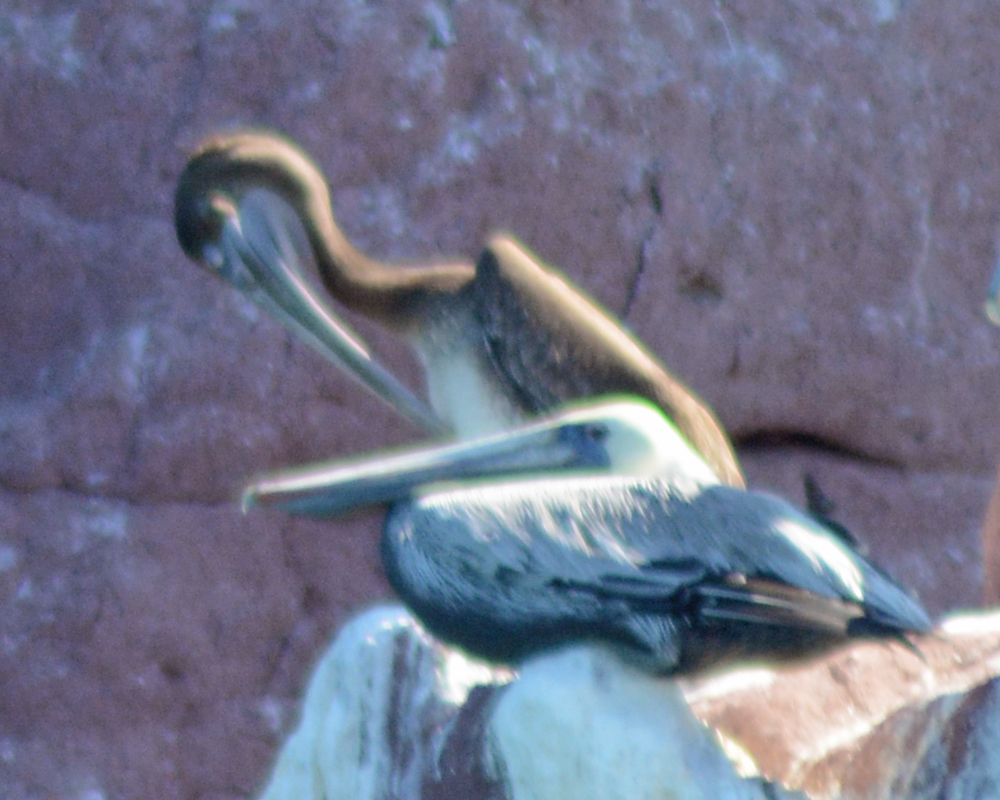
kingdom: Animalia
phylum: Chordata
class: Aves
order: Pelecaniformes
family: Pelecanidae
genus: Pelecanus
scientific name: Pelecanus occidentalis
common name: Brown pelican
